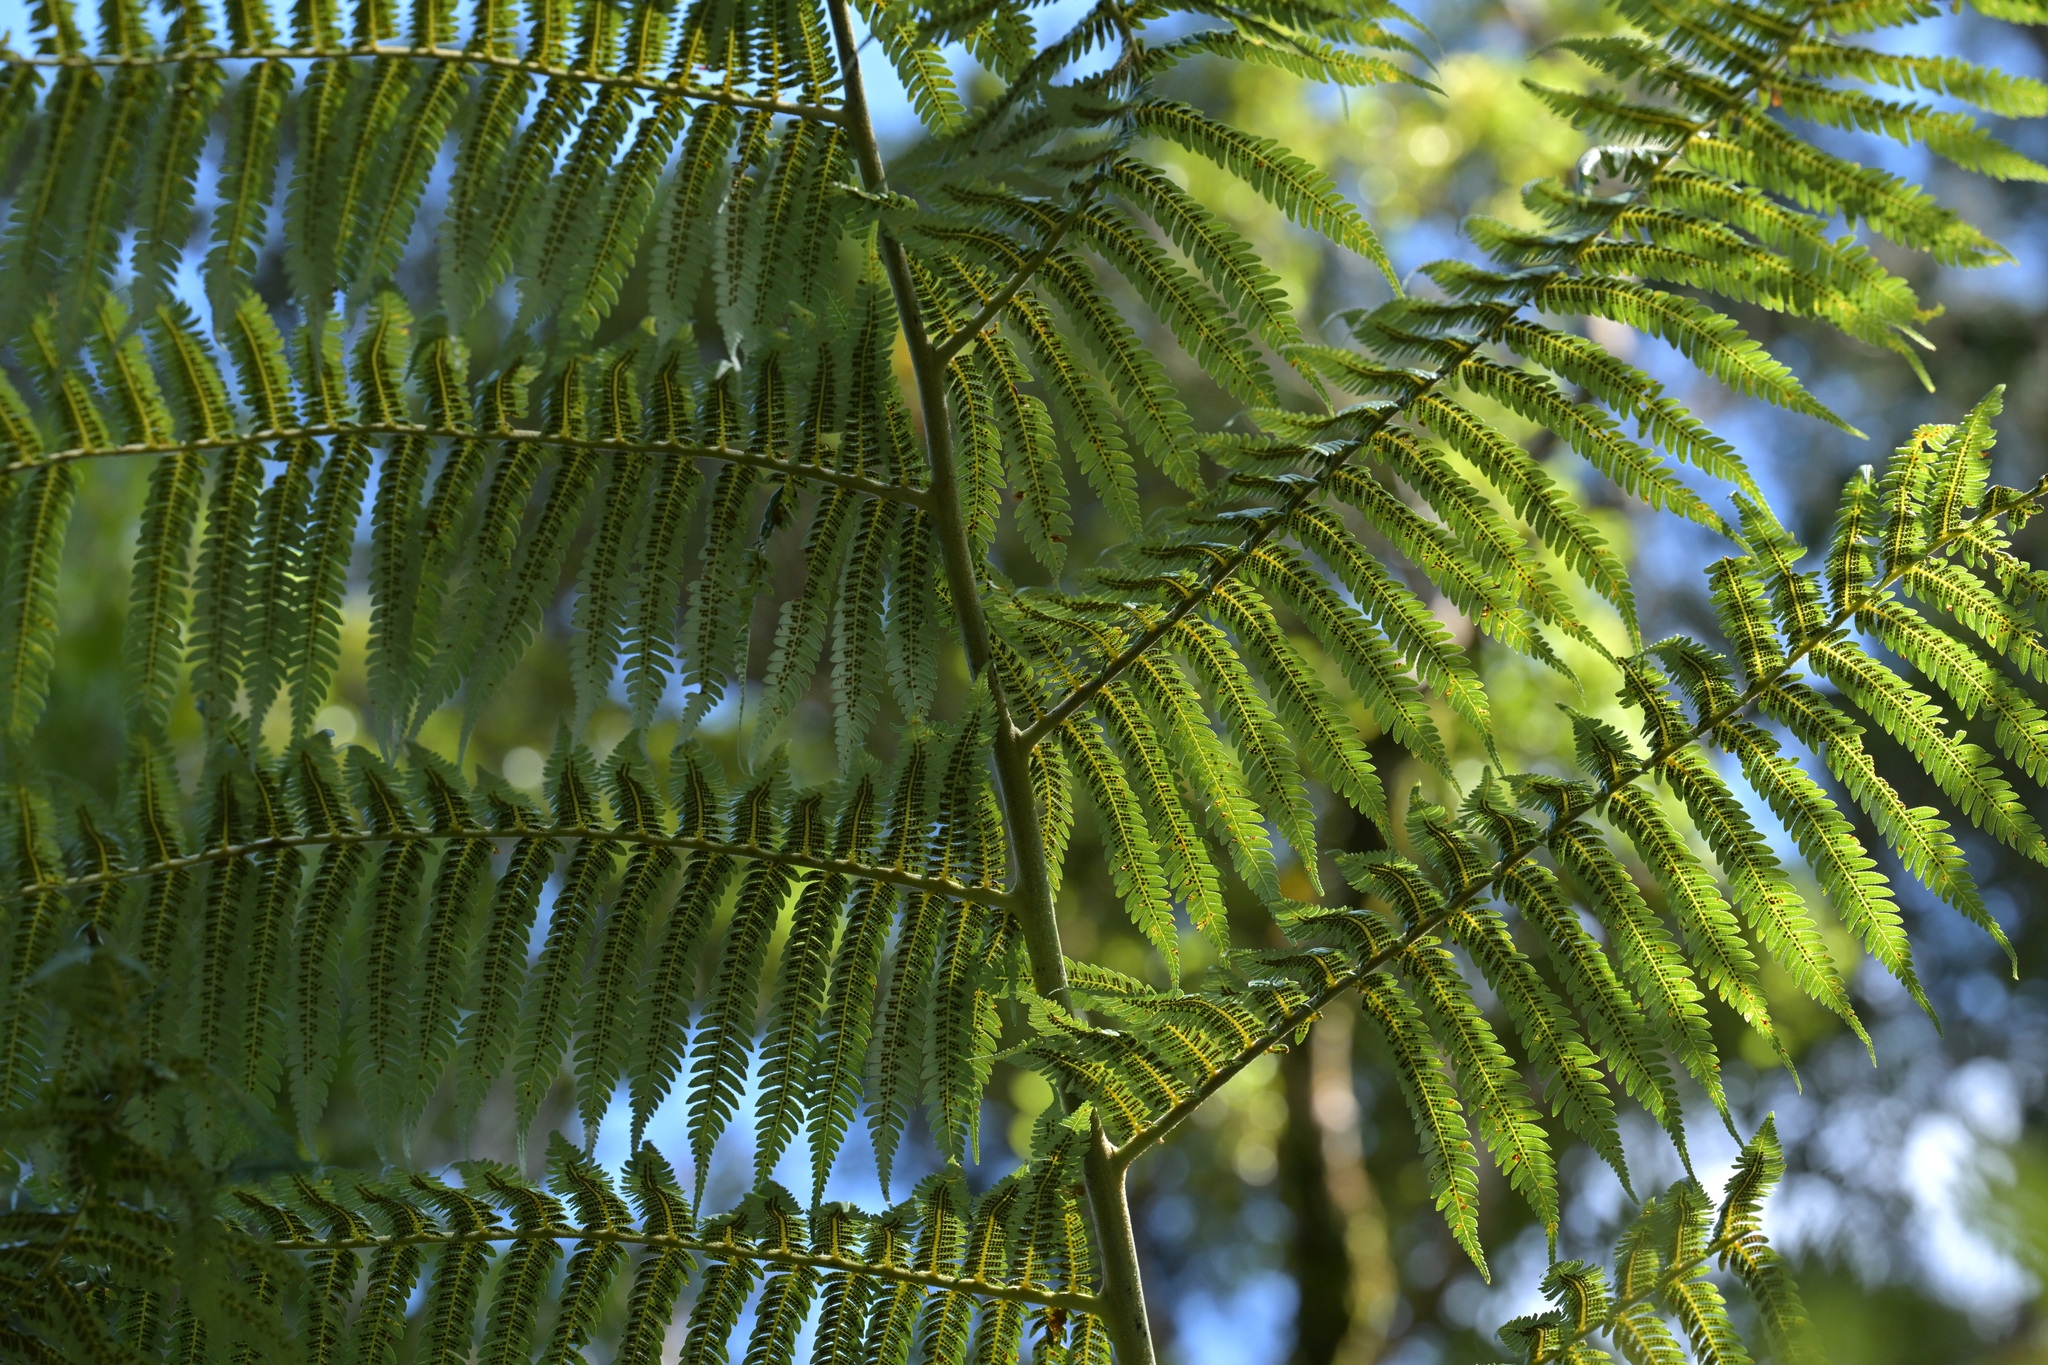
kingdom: Plantae
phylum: Tracheophyta
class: Polypodiopsida
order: Cyatheales
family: Cyatheaceae
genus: Alsophila
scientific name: Alsophila dealbata
